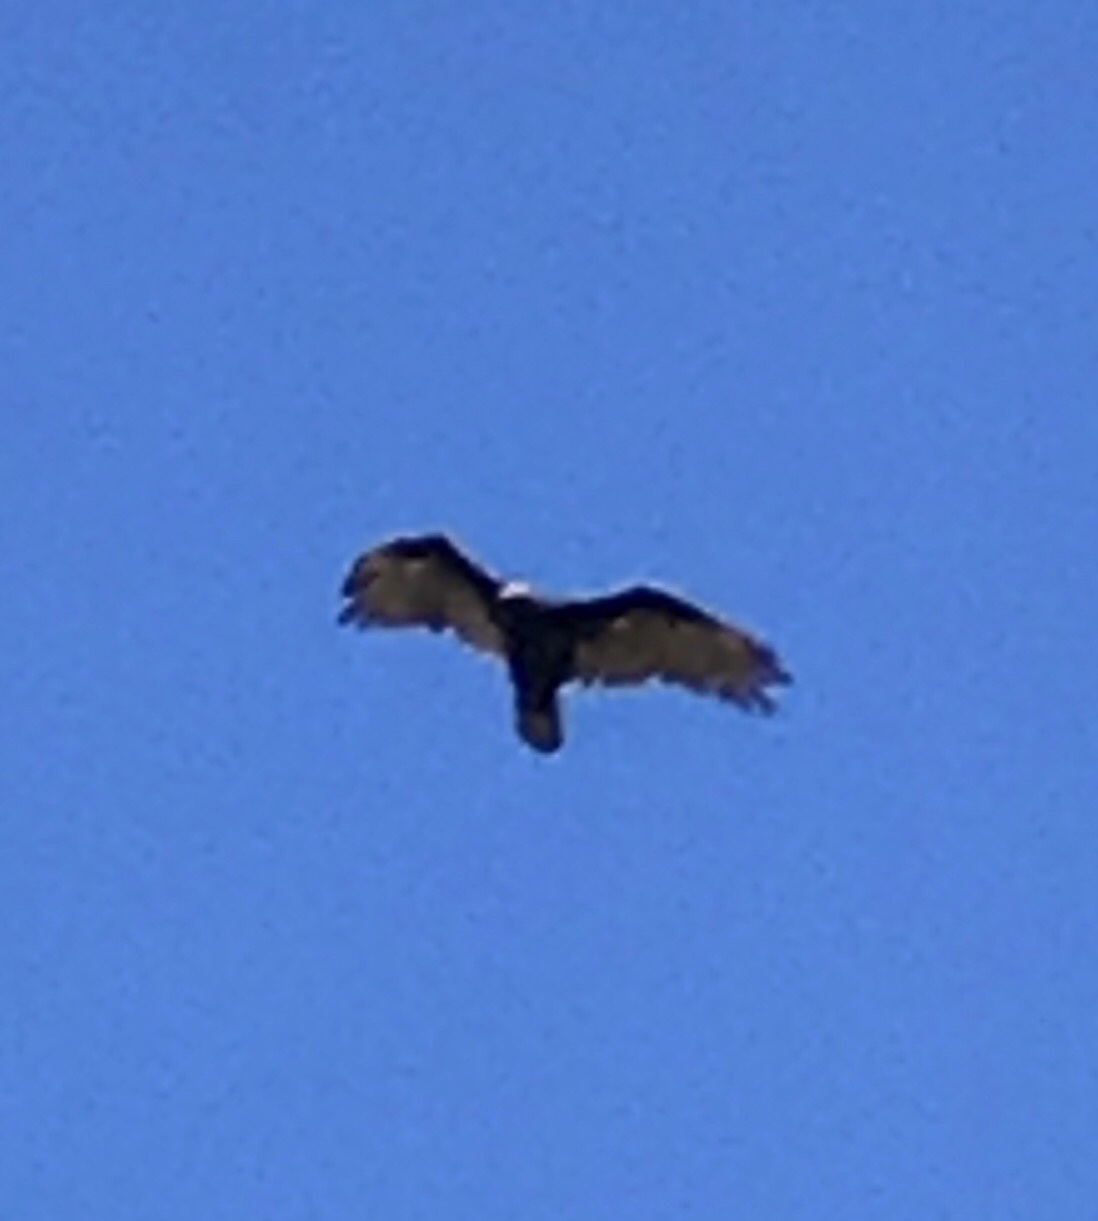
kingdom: Animalia
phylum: Chordata
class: Aves
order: Accipitriformes
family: Cathartidae
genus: Cathartes
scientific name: Cathartes aura
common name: Turkey vulture
